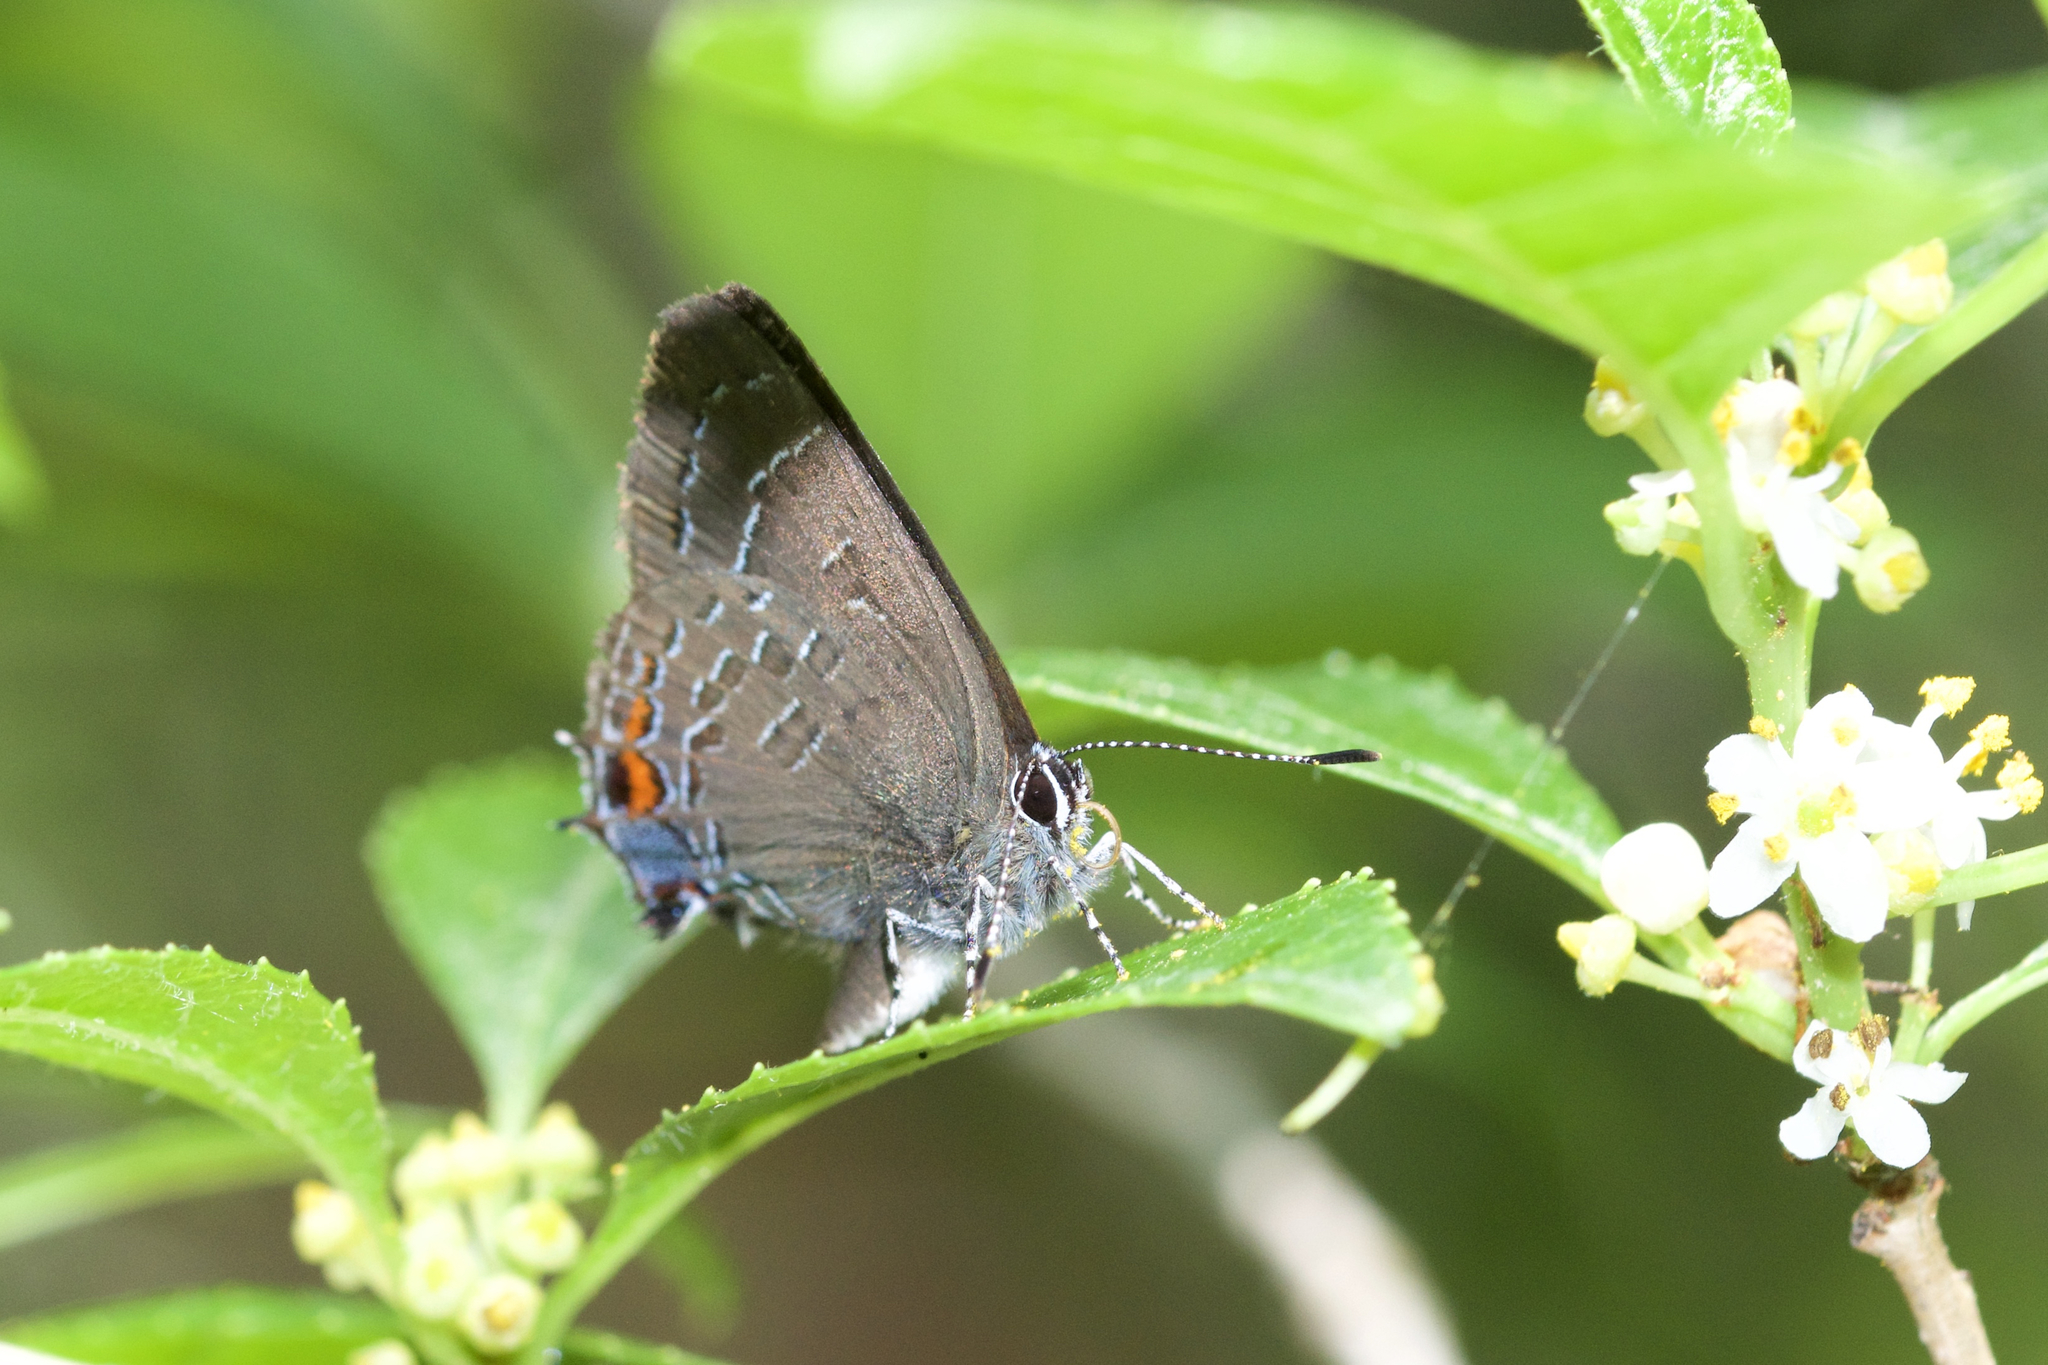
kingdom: Animalia
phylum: Arthropoda
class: Insecta
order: Lepidoptera
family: Lycaenidae
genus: Satyrium
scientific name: Satyrium calanus
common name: Banded hairstreak
